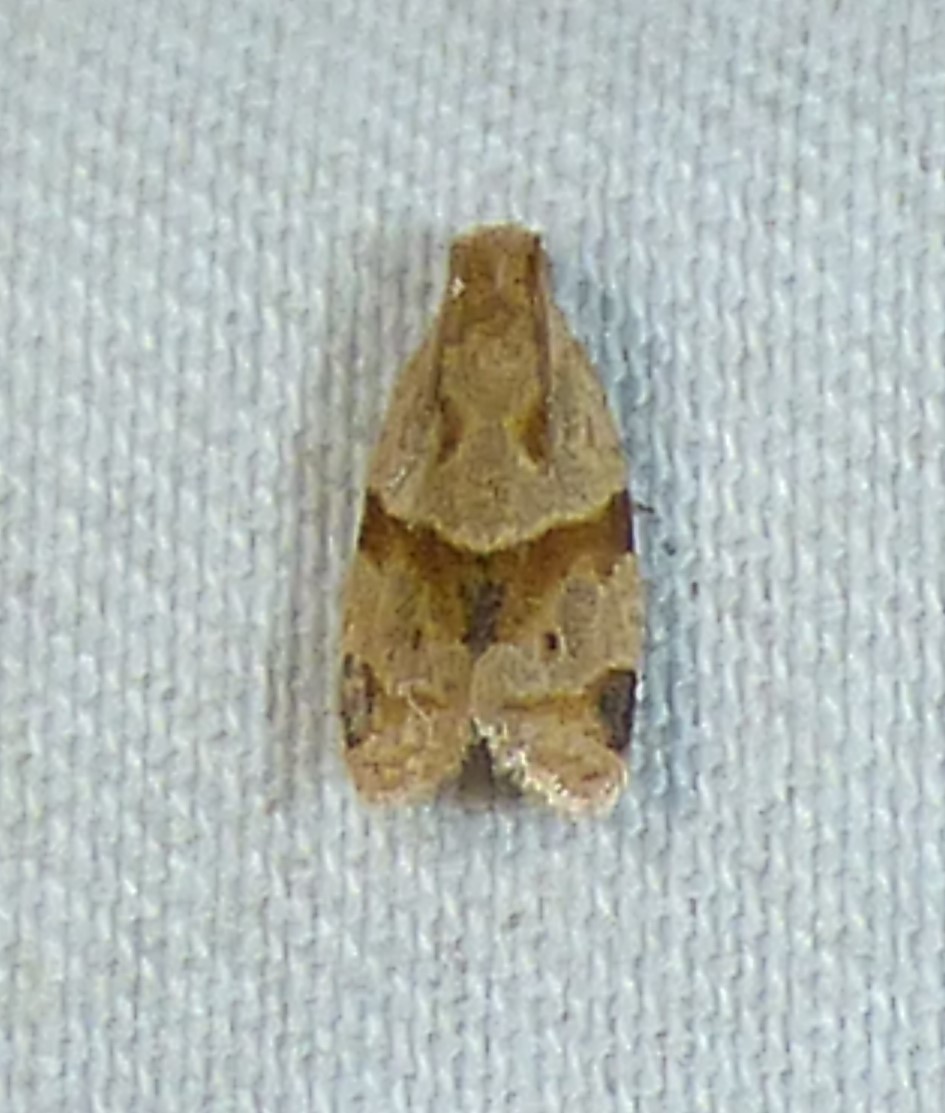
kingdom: Animalia
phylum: Arthropoda
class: Insecta
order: Lepidoptera
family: Tortricidae
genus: Clepsis
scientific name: Clepsis peritana
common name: Garden tortrix
